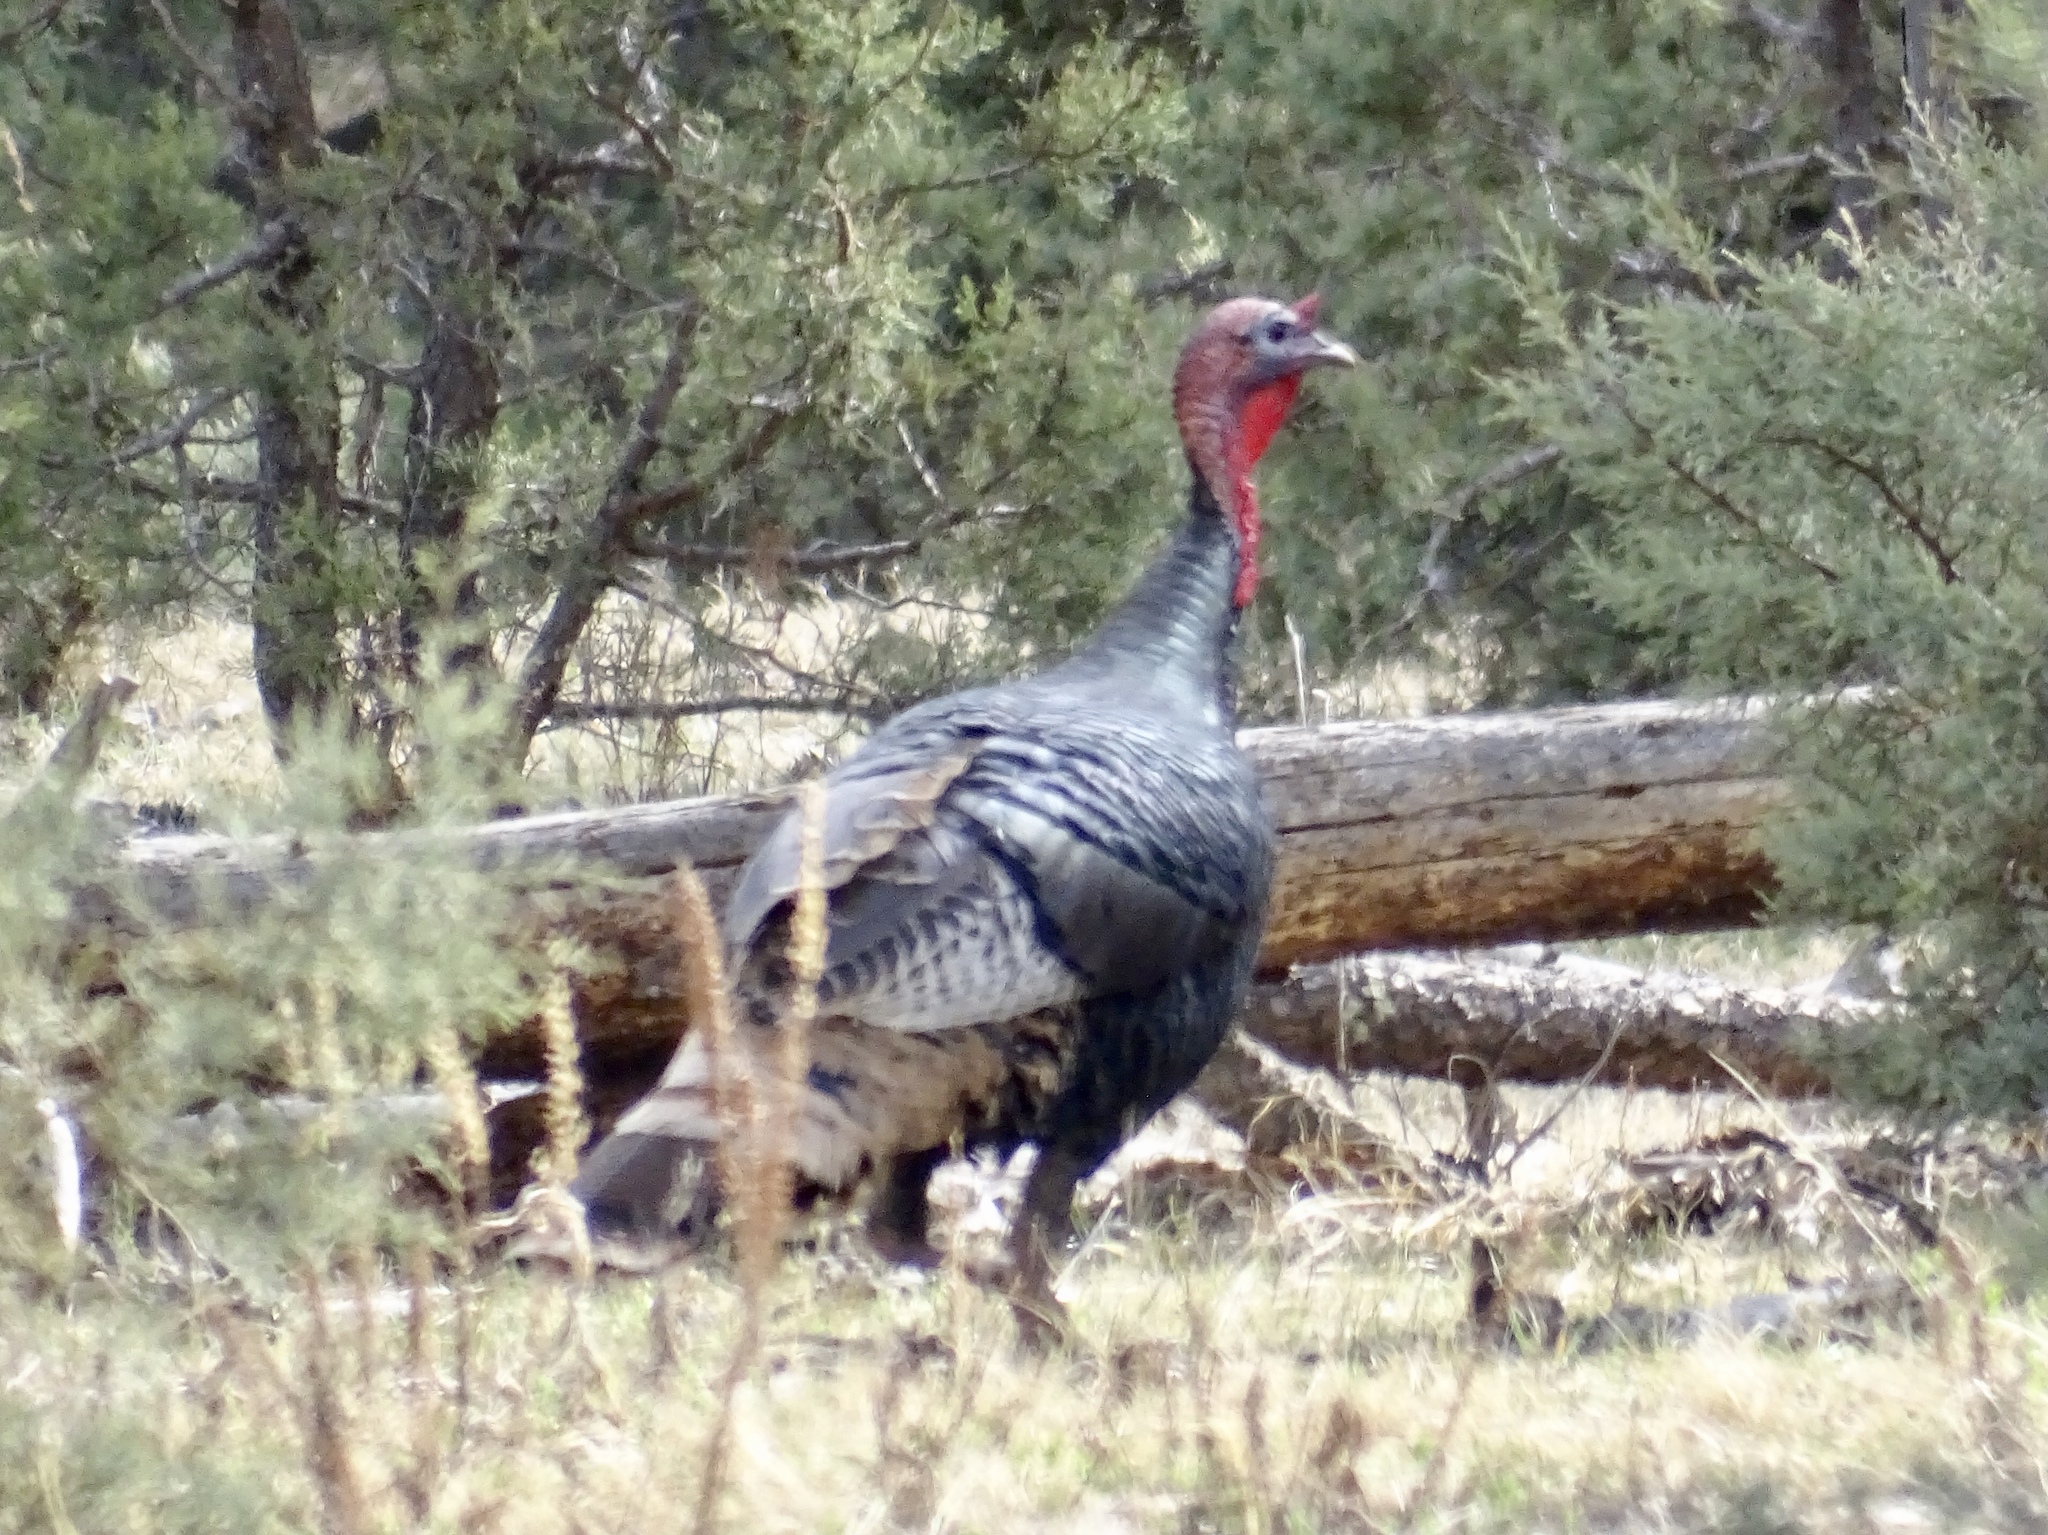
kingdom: Animalia
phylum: Chordata
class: Aves
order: Galliformes
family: Phasianidae
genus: Meleagris
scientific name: Meleagris gallopavo
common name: Wild turkey
